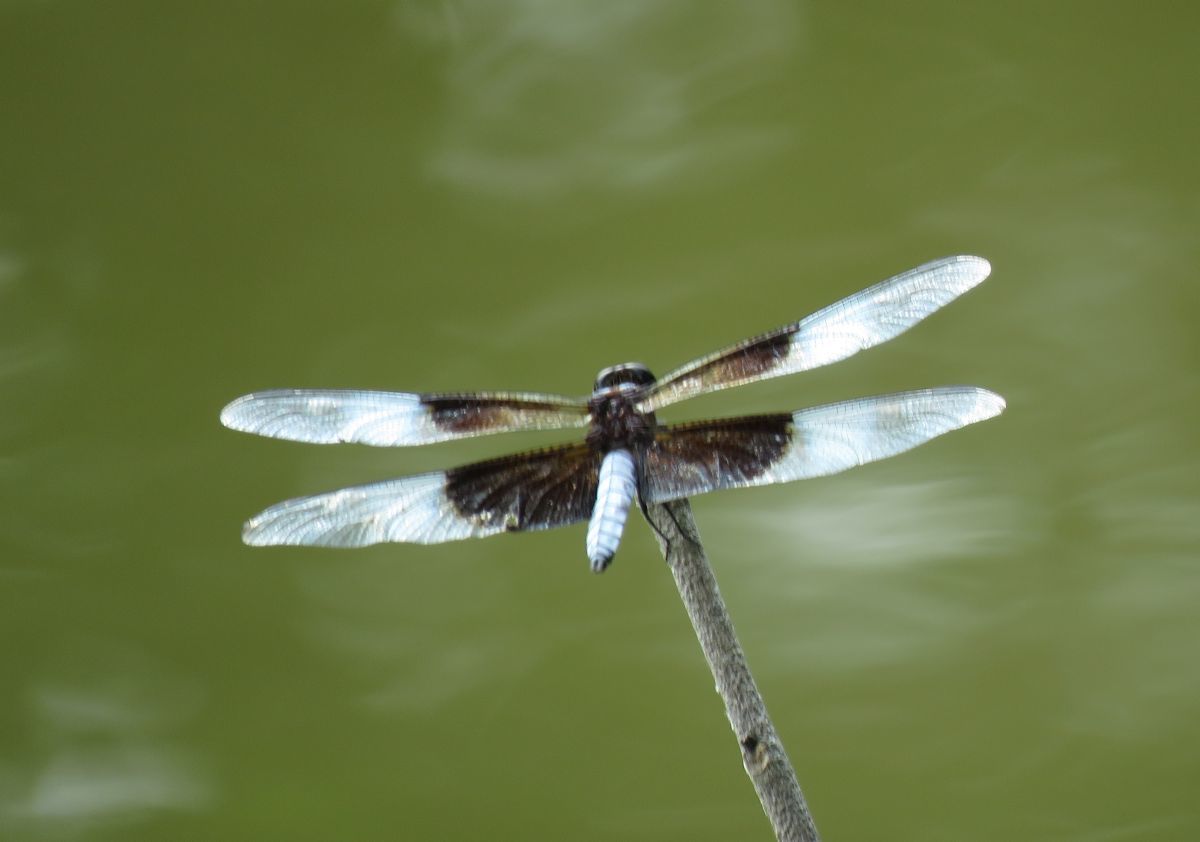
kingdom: Animalia
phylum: Arthropoda
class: Insecta
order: Odonata
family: Libellulidae
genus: Libellula
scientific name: Libellula luctuosa
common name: Widow skimmer
